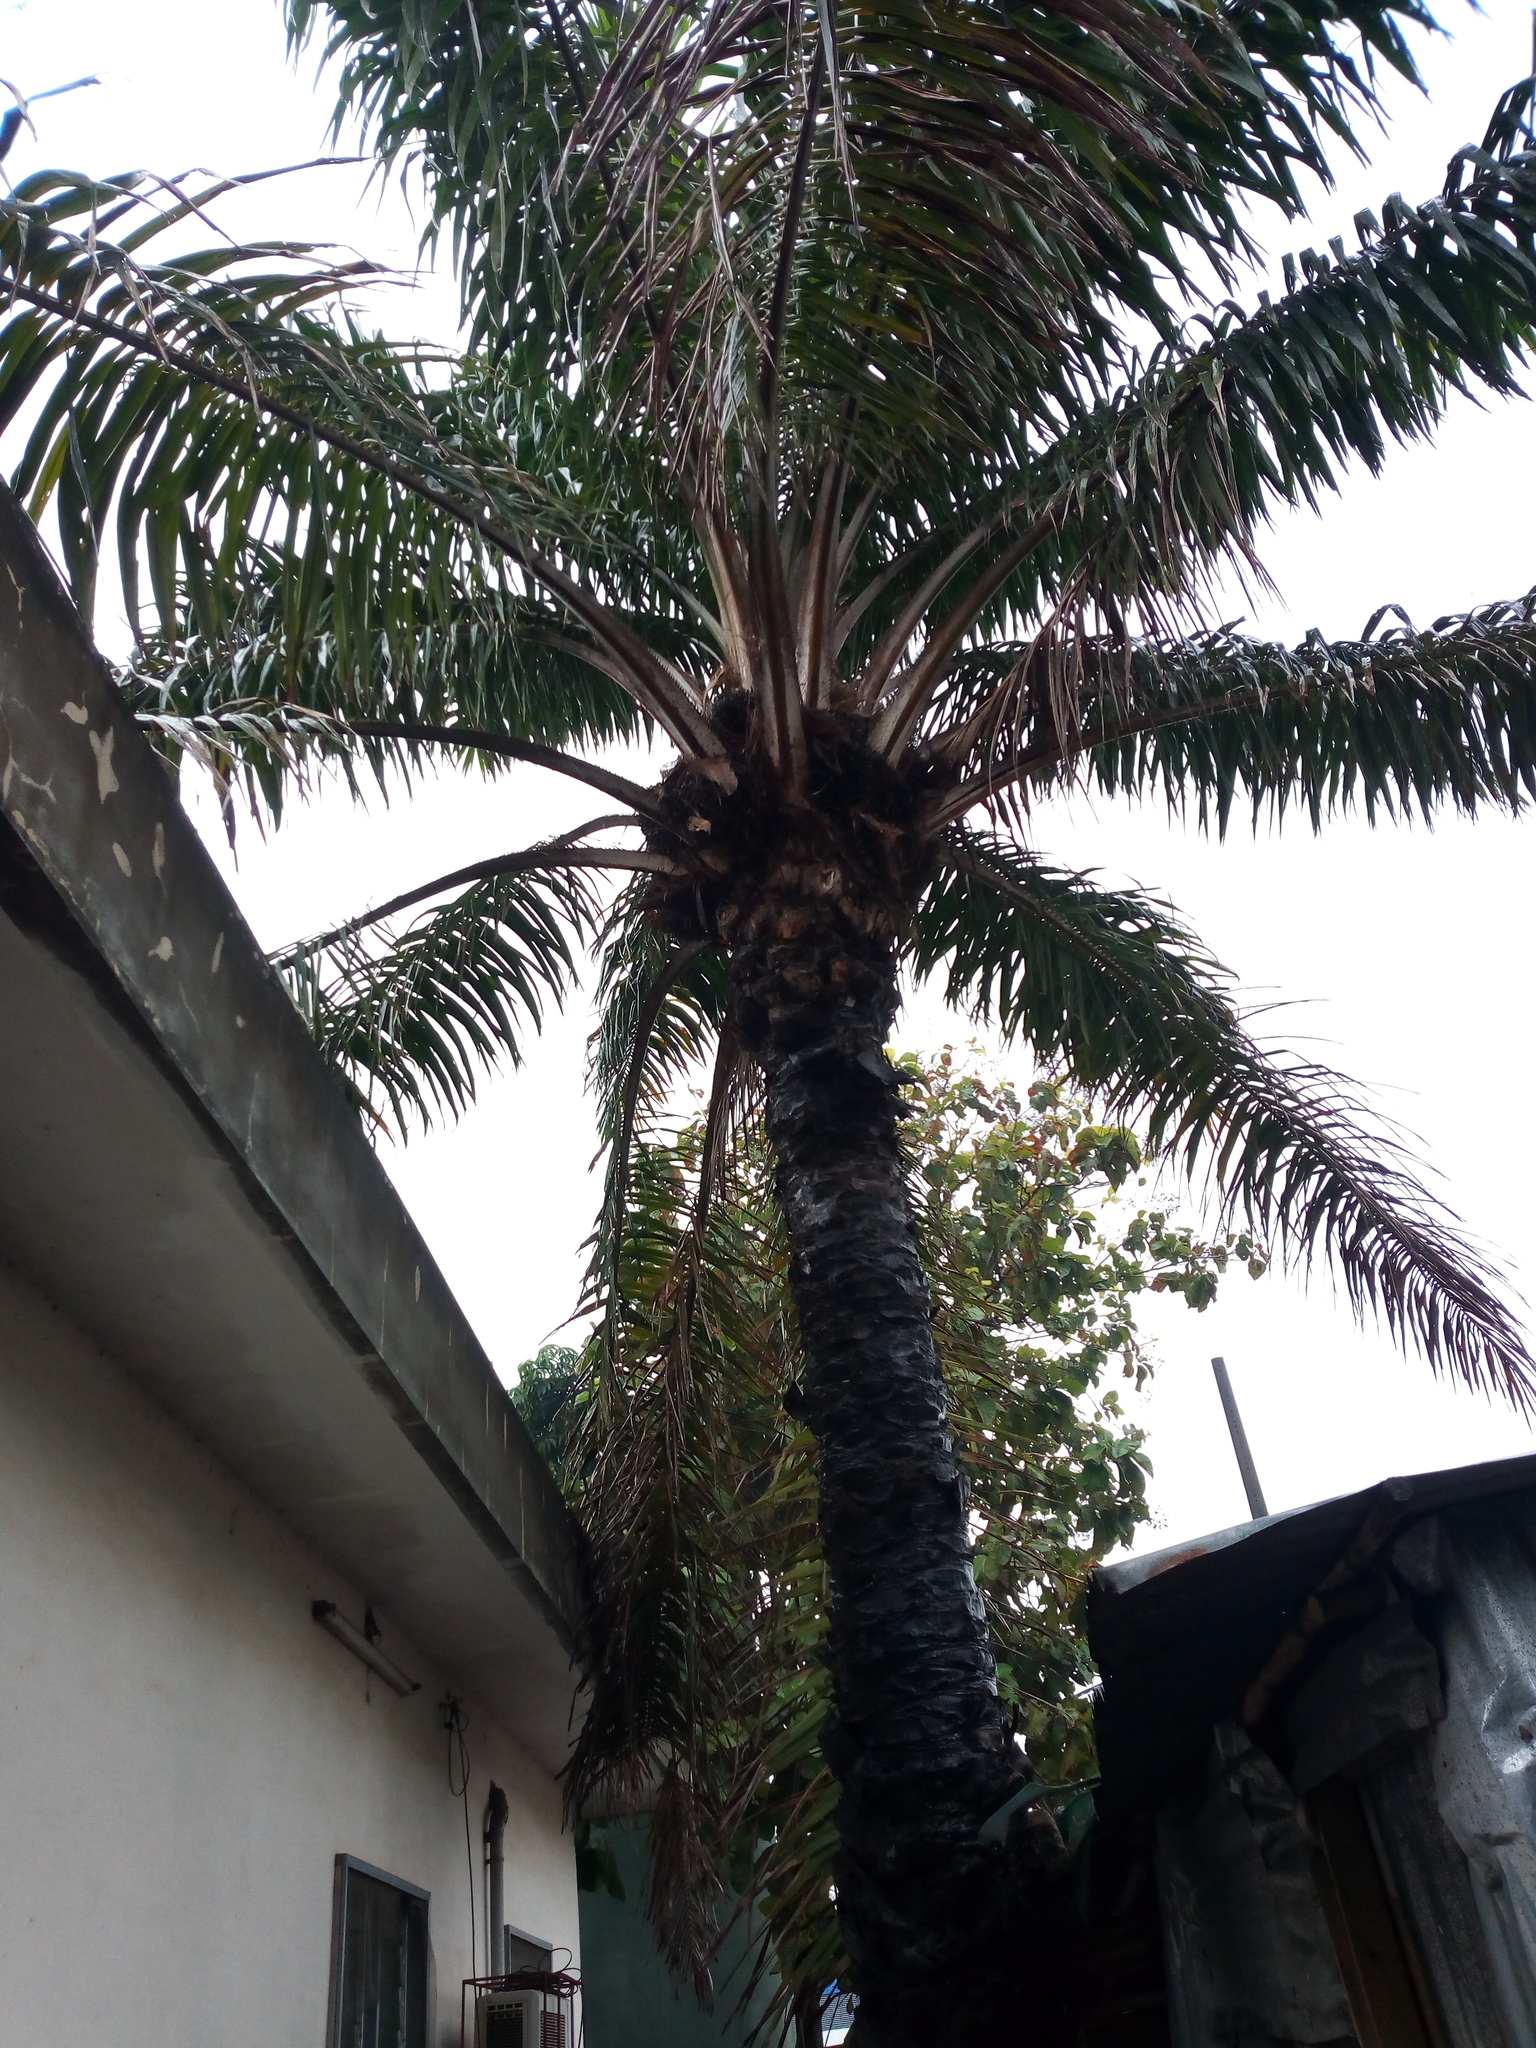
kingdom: Plantae
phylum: Tracheophyta
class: Liliopsida
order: Arecales
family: Arecaceae
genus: Elaeis
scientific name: Elaeis guineensis
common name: Oil palm
